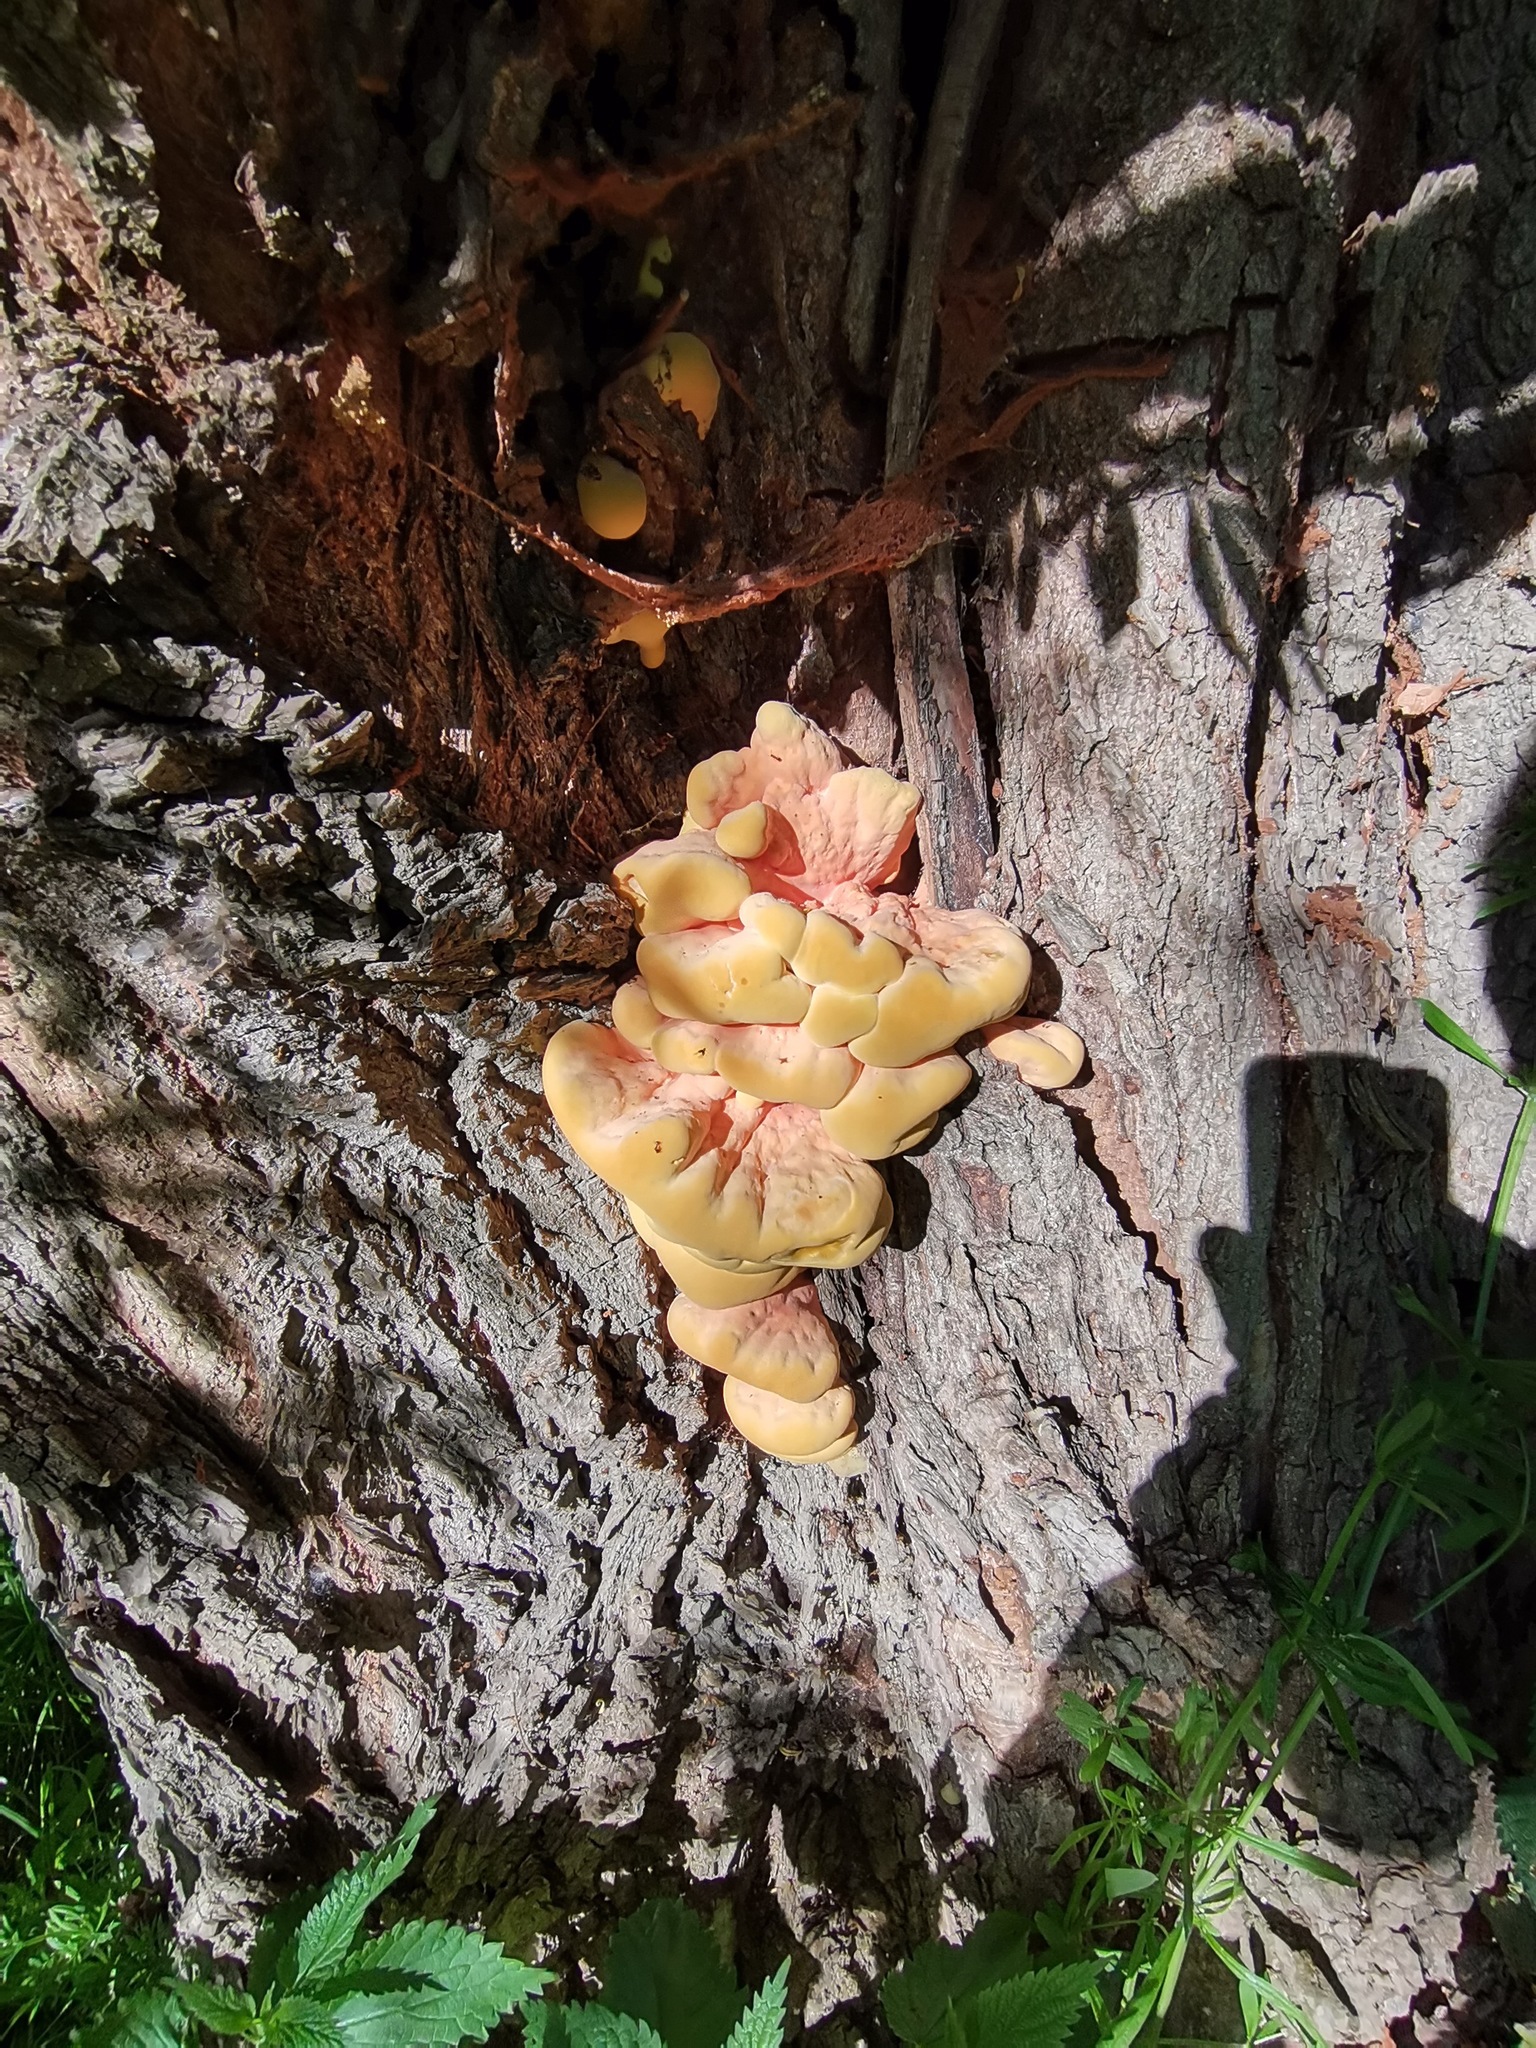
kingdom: Fungi
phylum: Basidiomycota
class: Agaricomycetes
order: Polyporales
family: Laetiporaceae
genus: Laetiporus
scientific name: Laetiporus sulphureus
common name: Chicken of the woods
